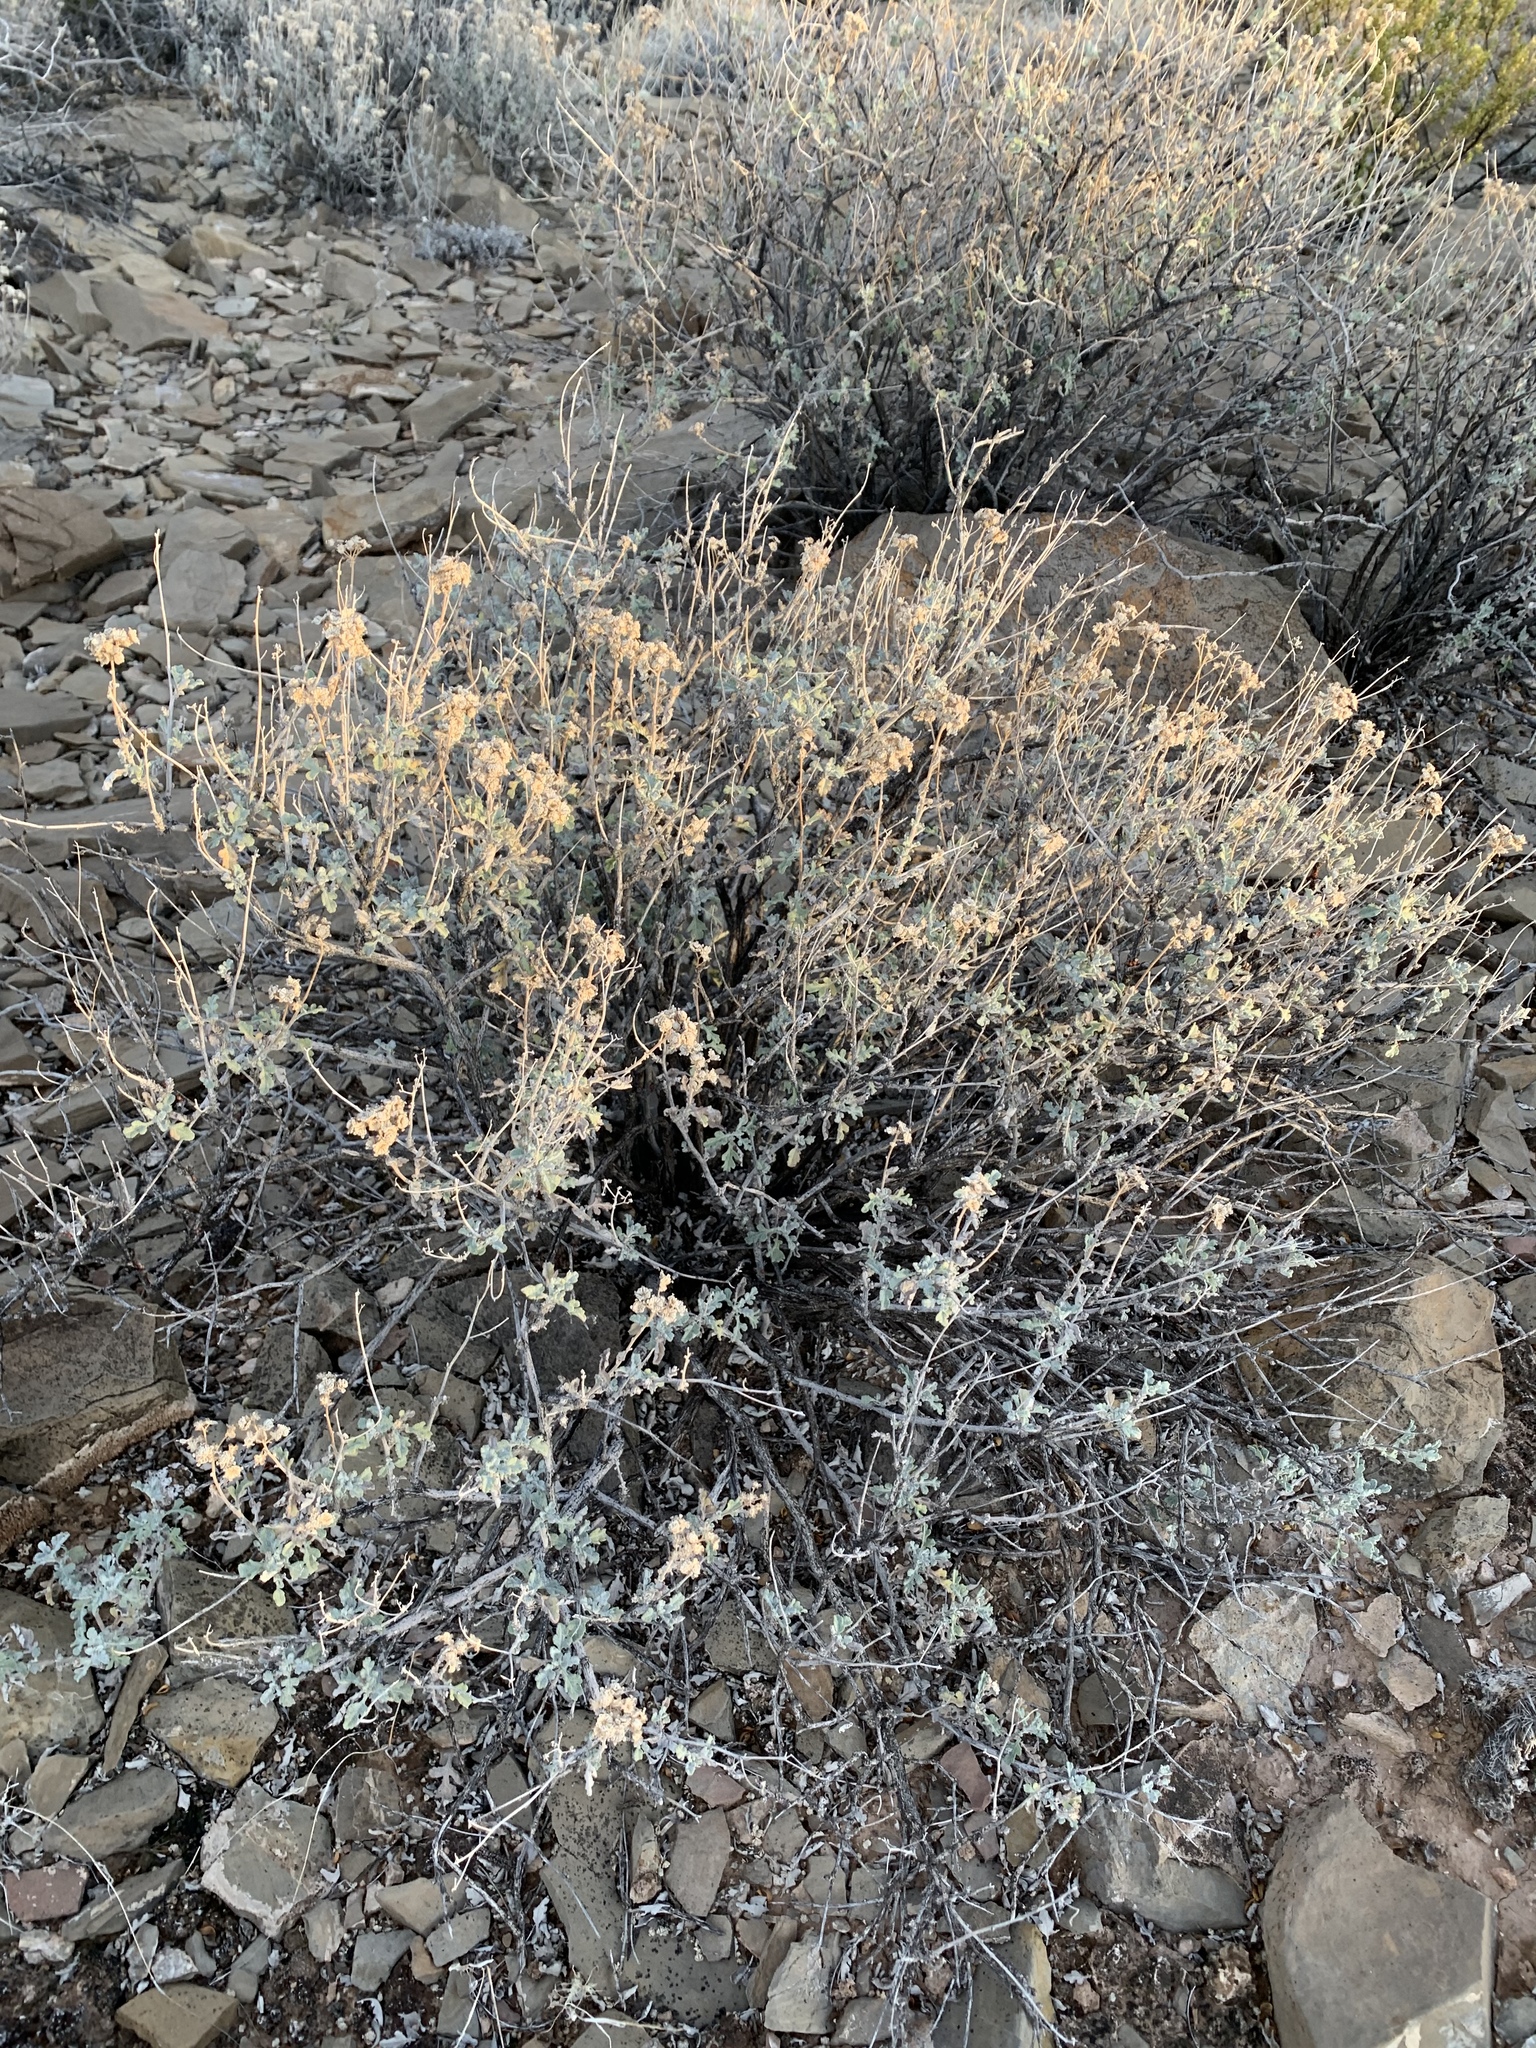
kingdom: Plantae
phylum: Tracheophyta
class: Magnoliopsida
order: Asterales
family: Asteraceae
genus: Parthenium
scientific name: Parthenium incanum
